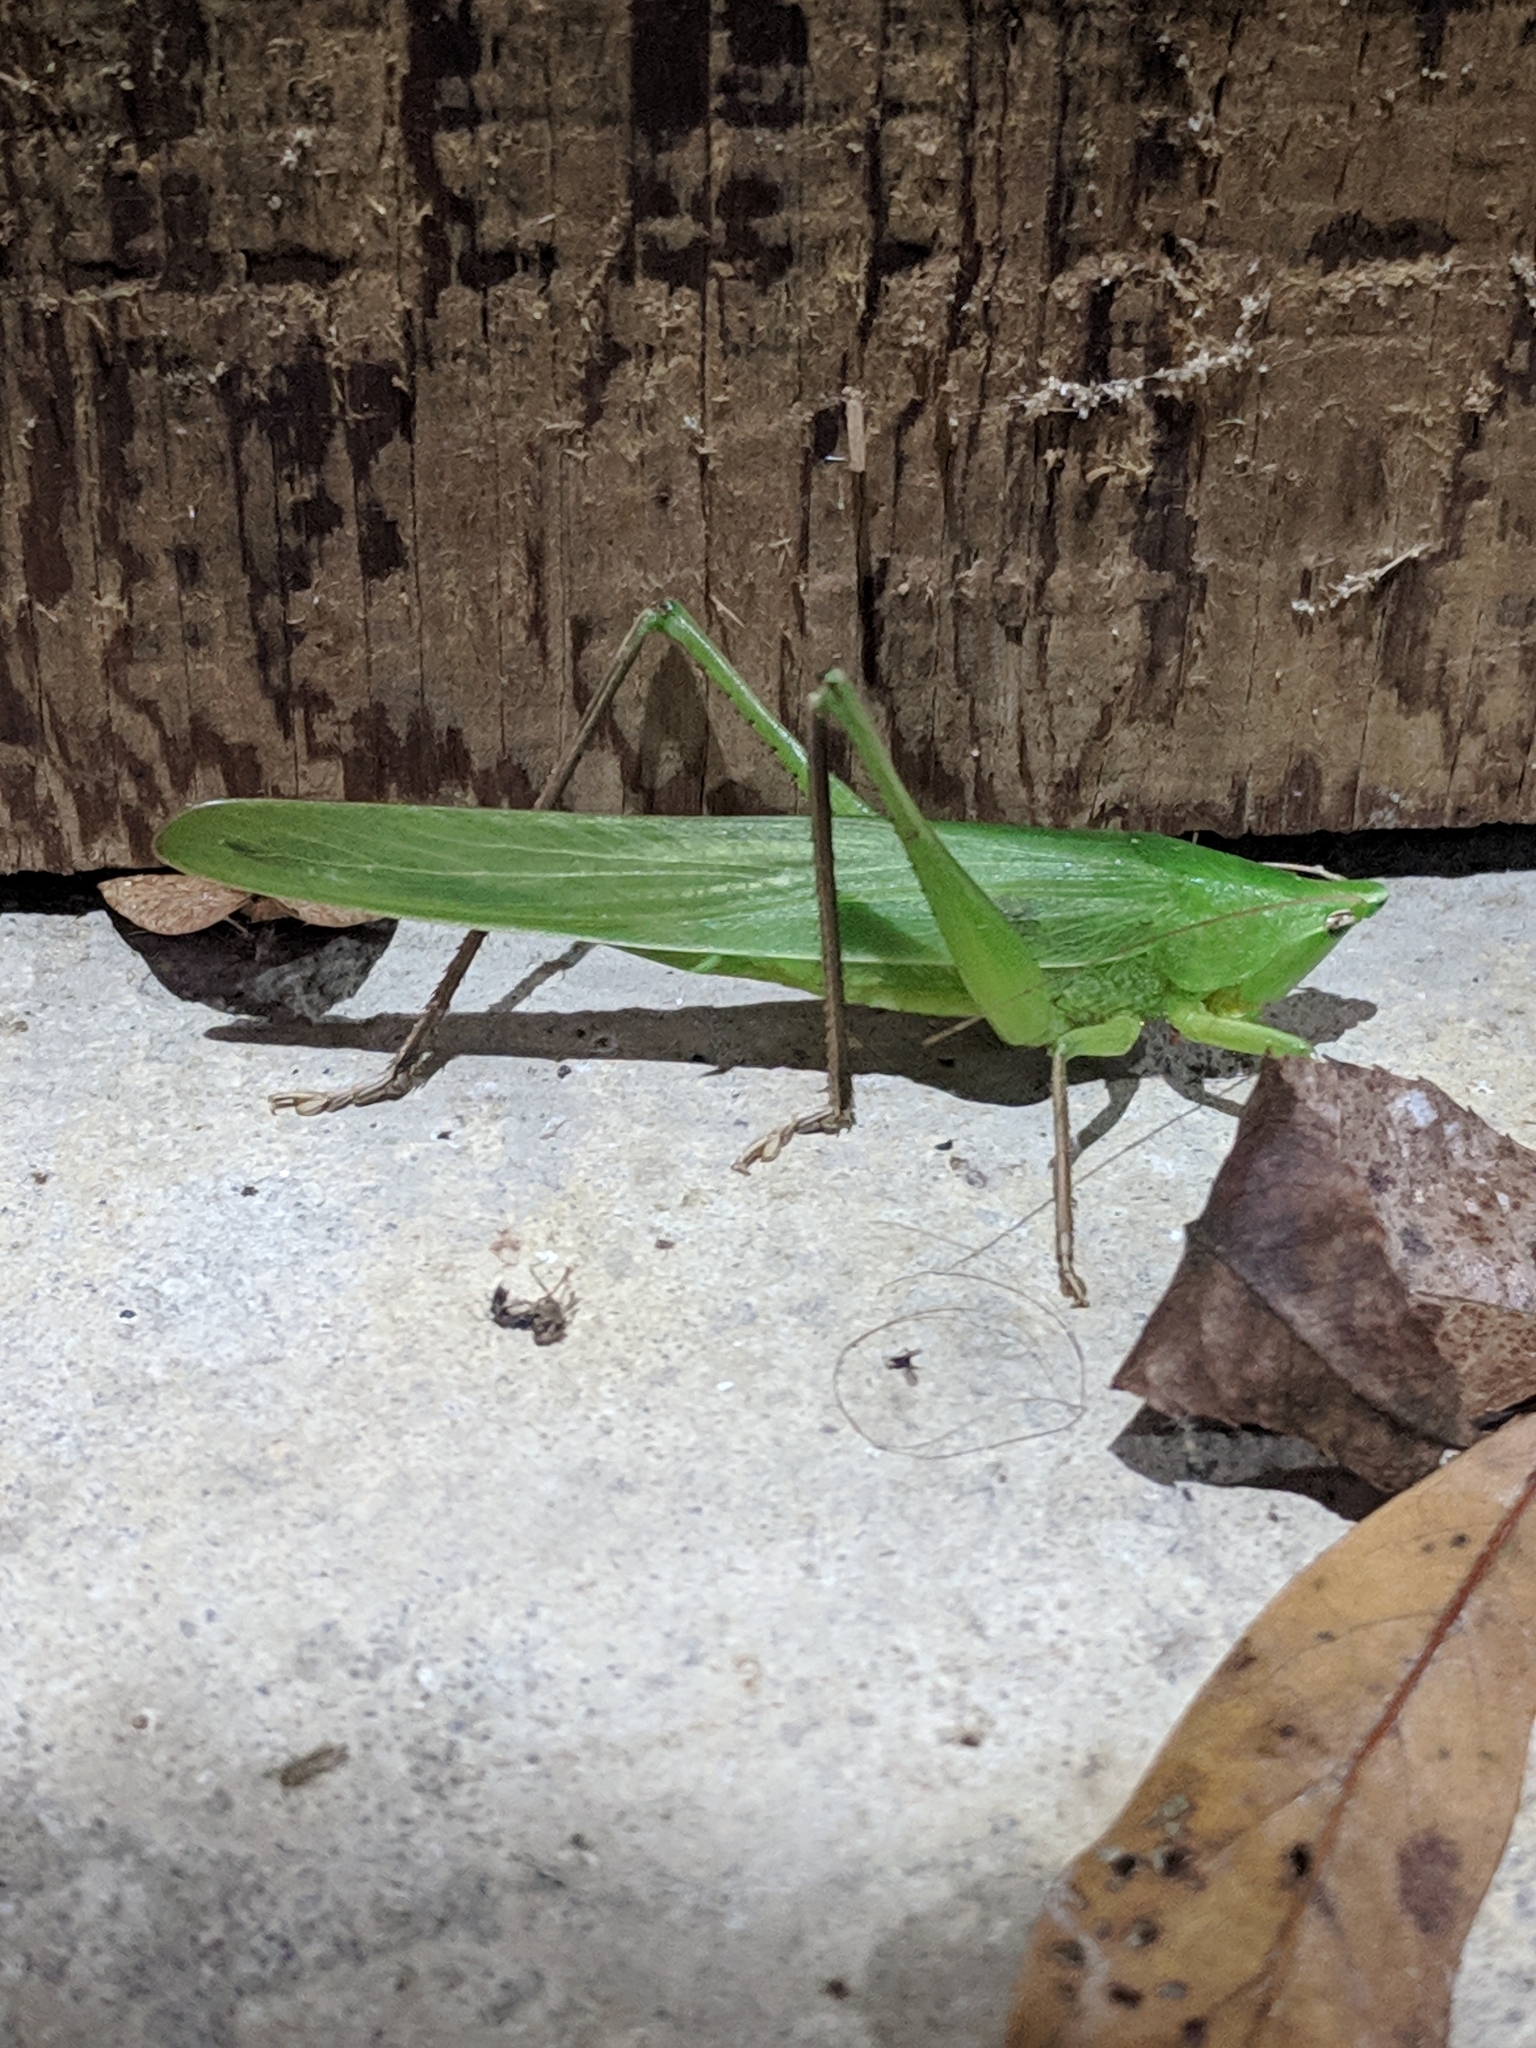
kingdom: Animalia
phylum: Arthropoda
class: Insecta
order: Orthoptera
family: Tettigoniidae
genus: Neoconocephalus
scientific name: Neoconocephalus triops
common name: Broad-tipped conehead
